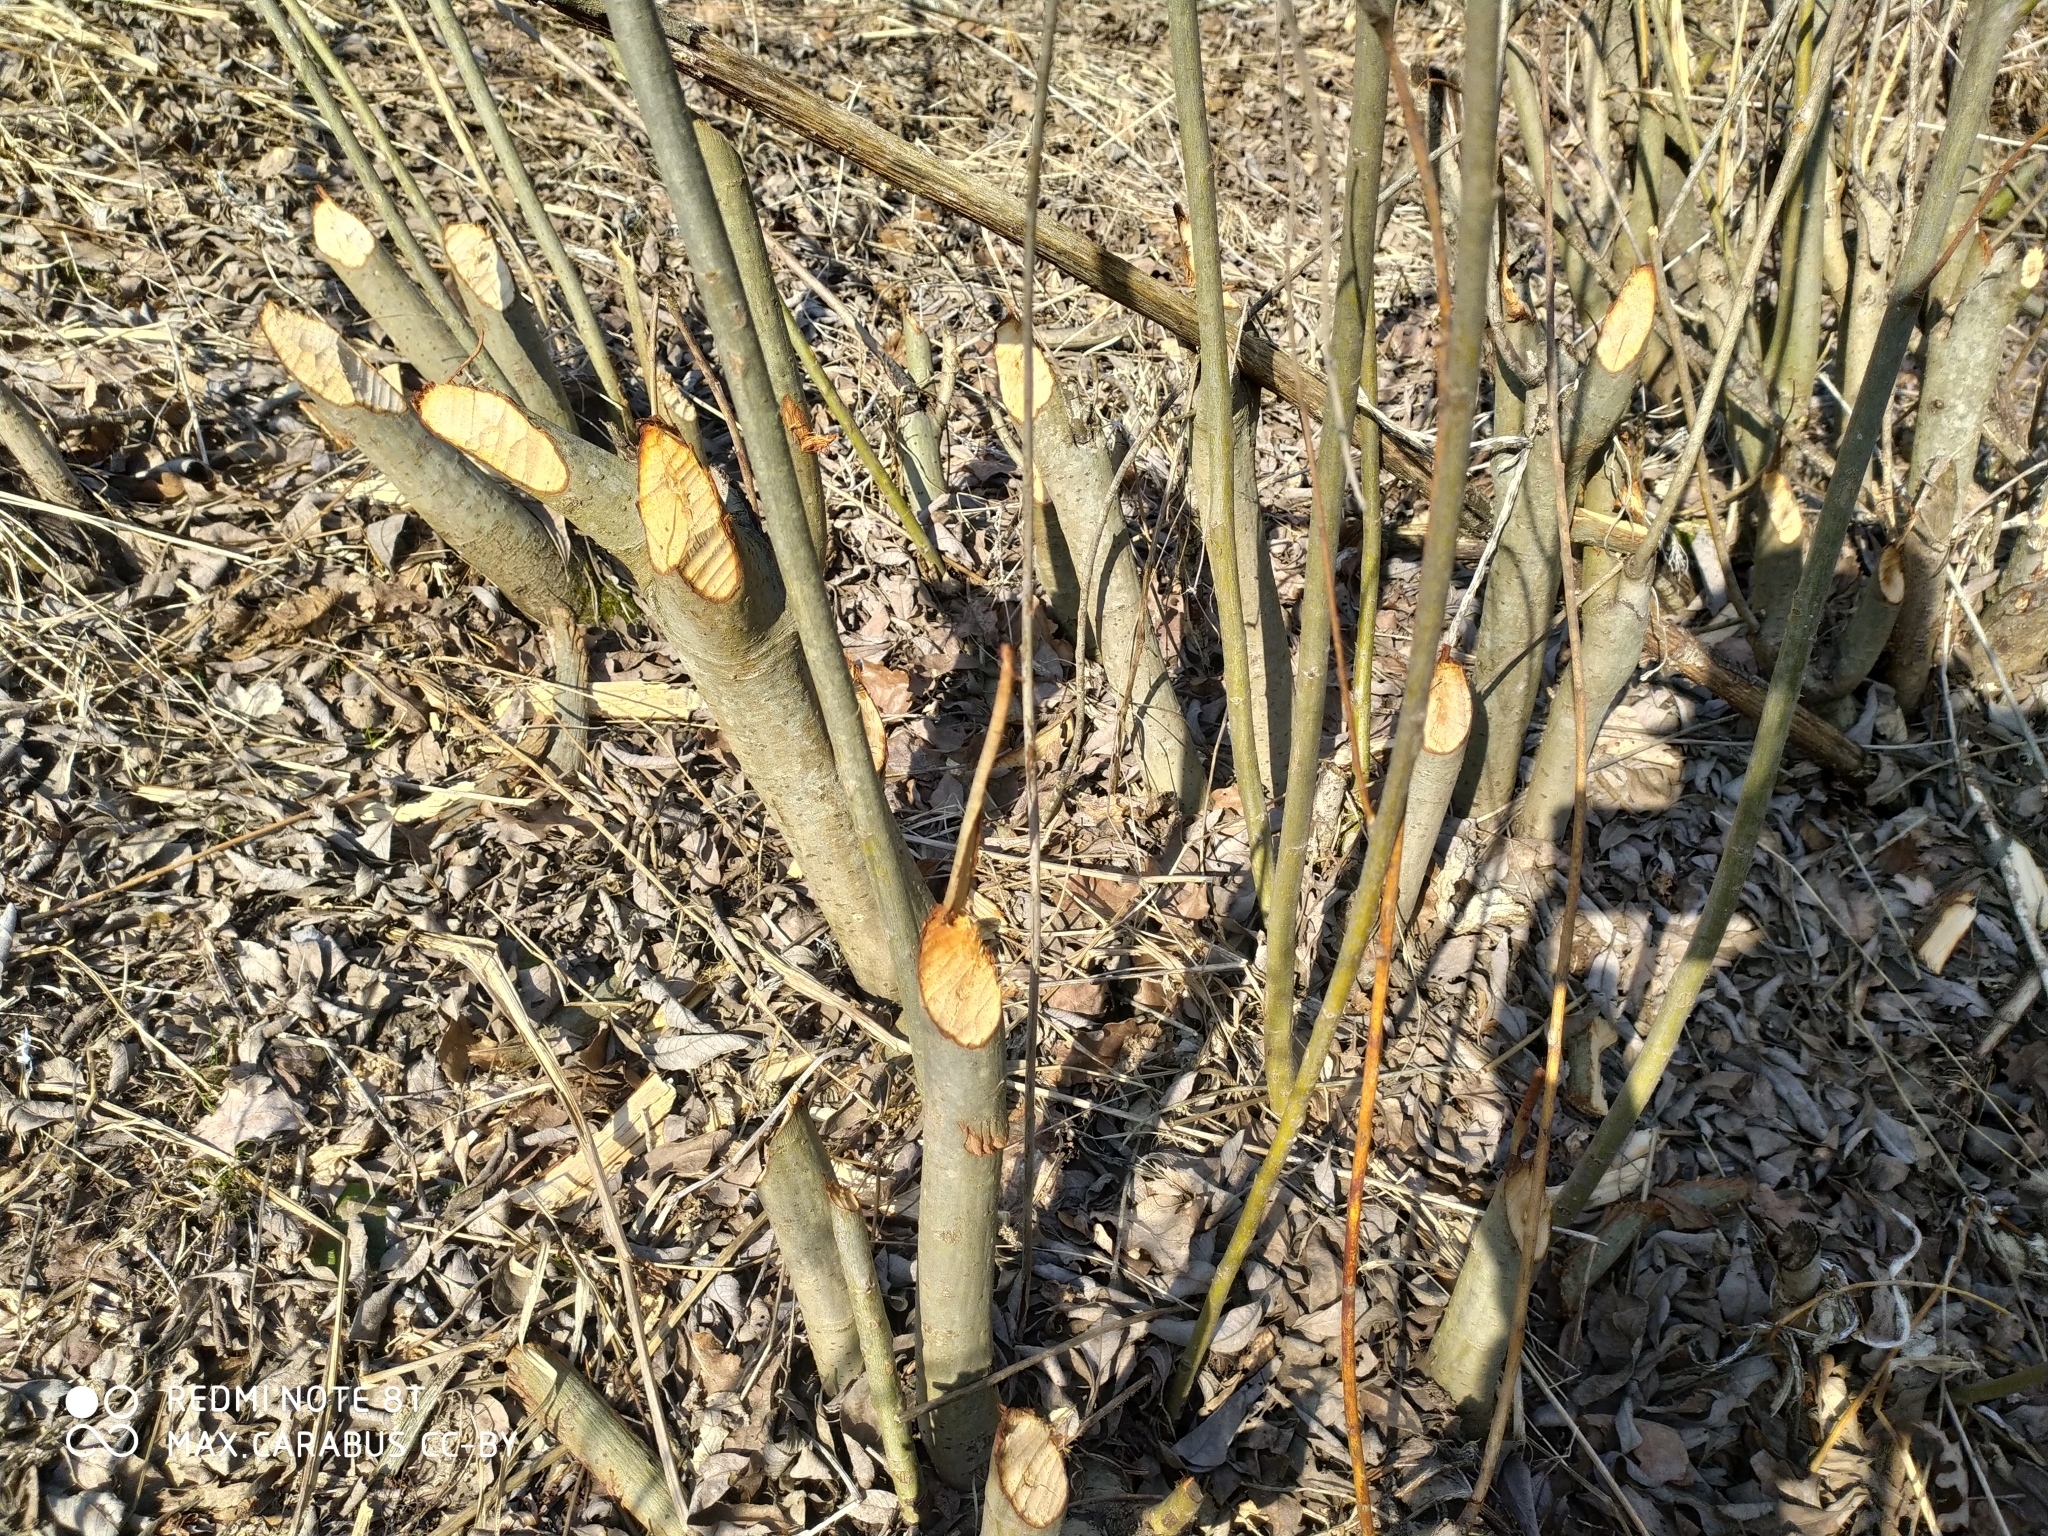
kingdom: Animalia
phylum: Chordata
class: Mammalia
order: Rodentia
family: Castoridae
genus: Castor
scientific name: Castor fiber
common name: Eurasian beaver
